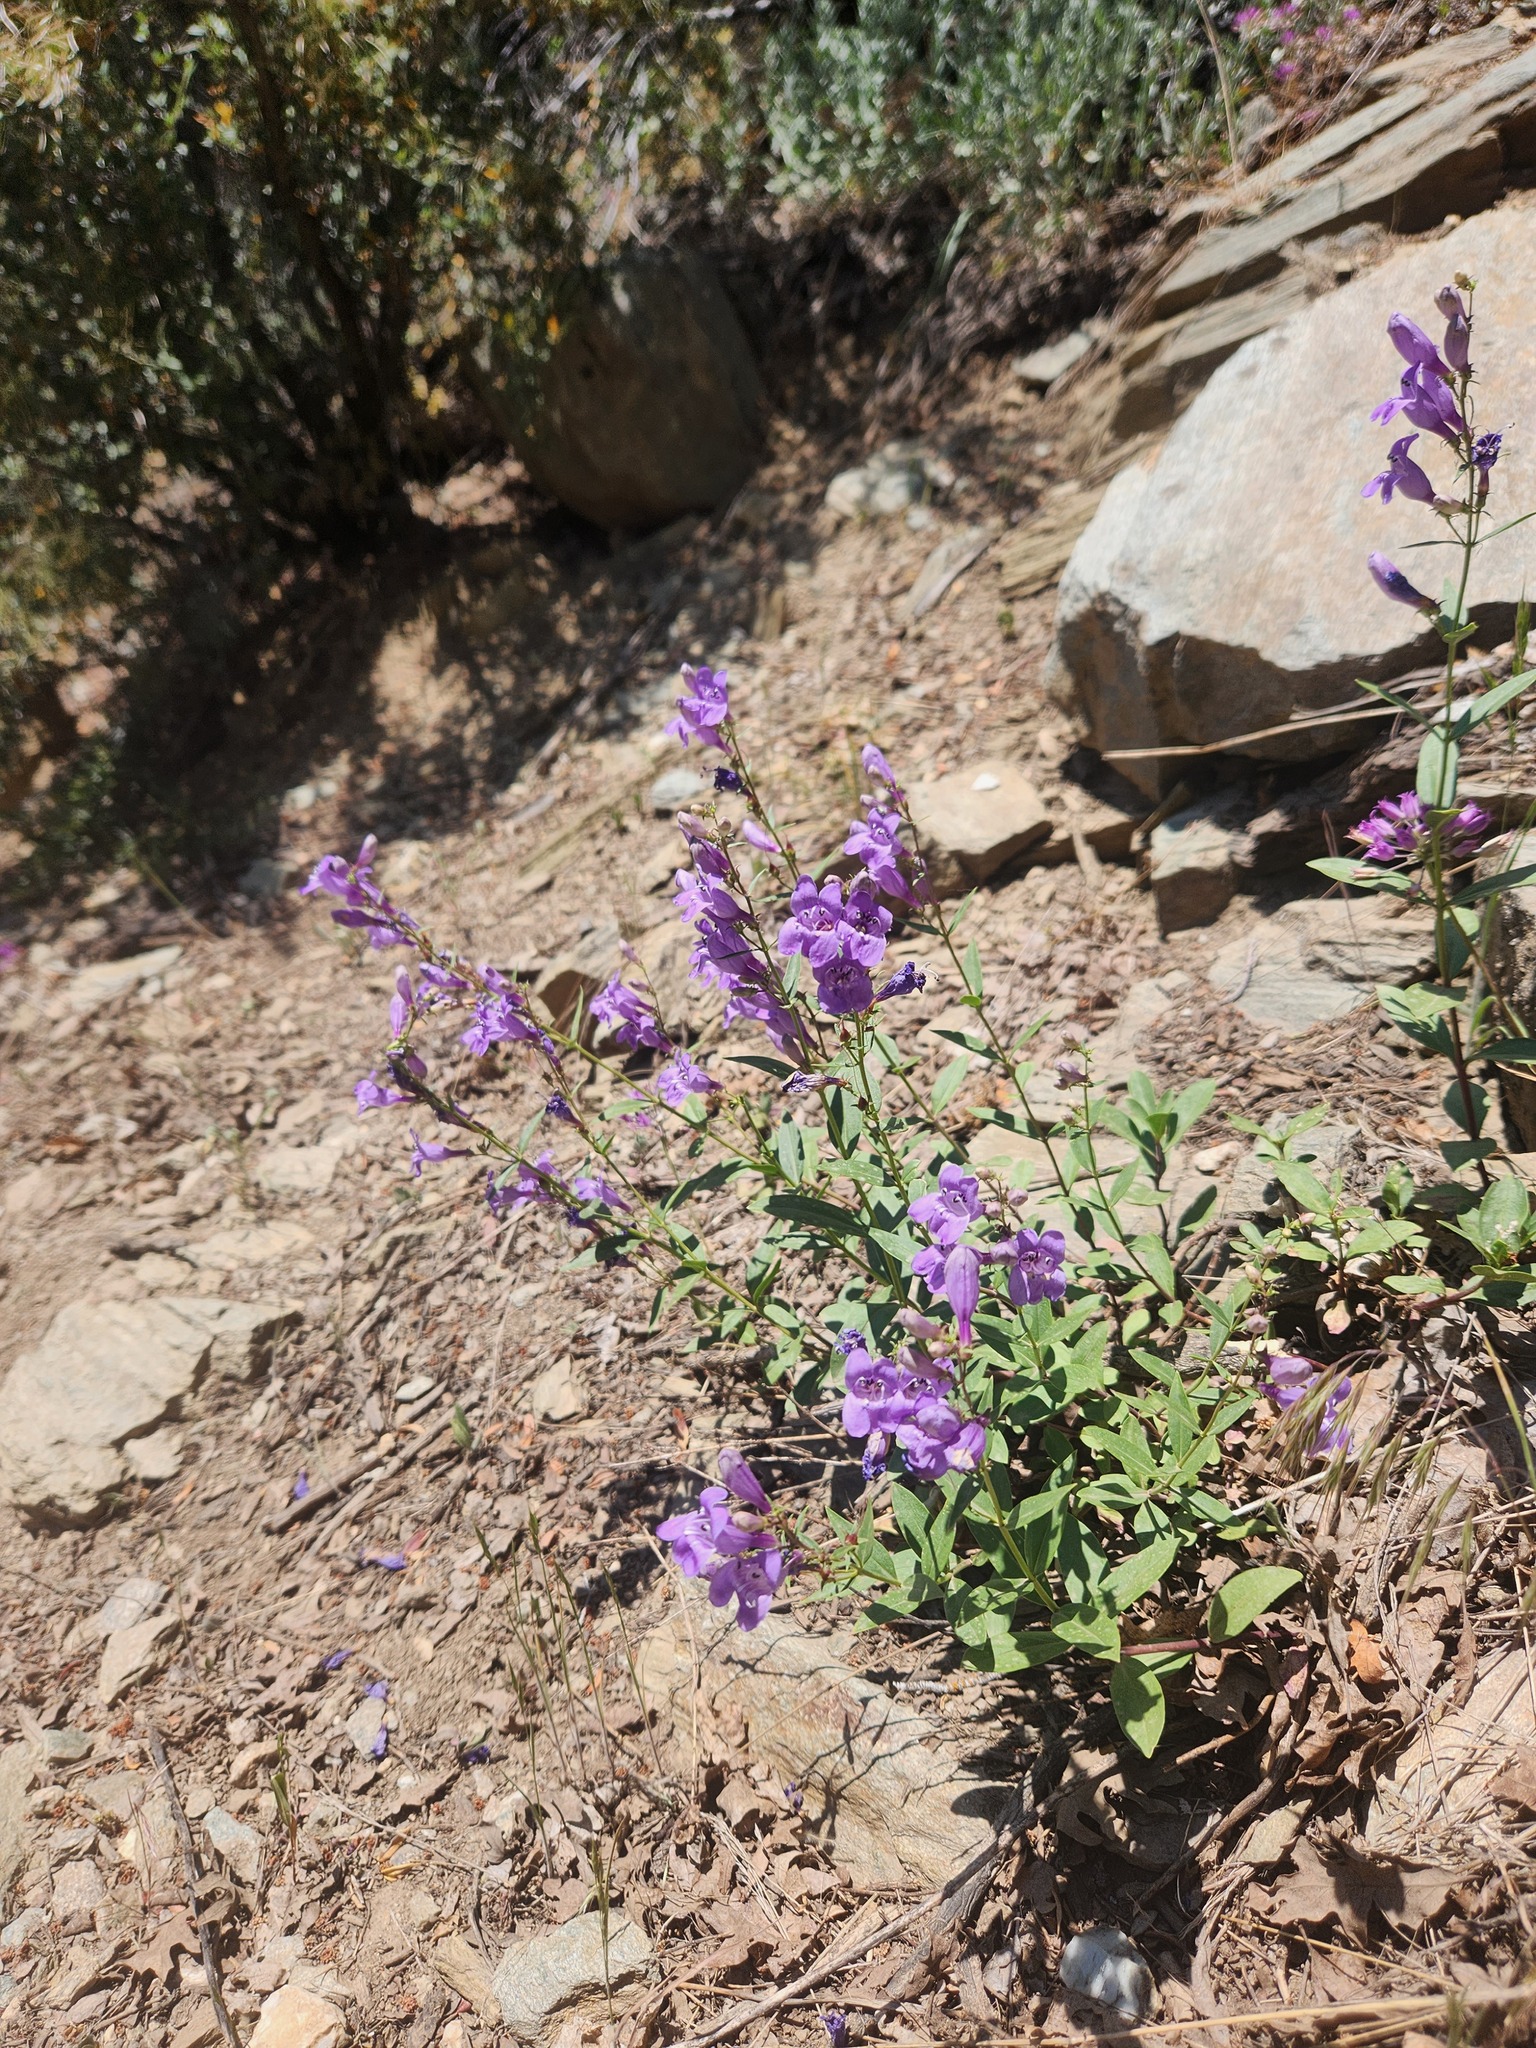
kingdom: Plantae
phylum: Tracheophyta
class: Magnoliopsida
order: Lamiales
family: Plantaginaceae
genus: Penstemon
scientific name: Penstemon platyphyllus
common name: Broadleaf penstemon
